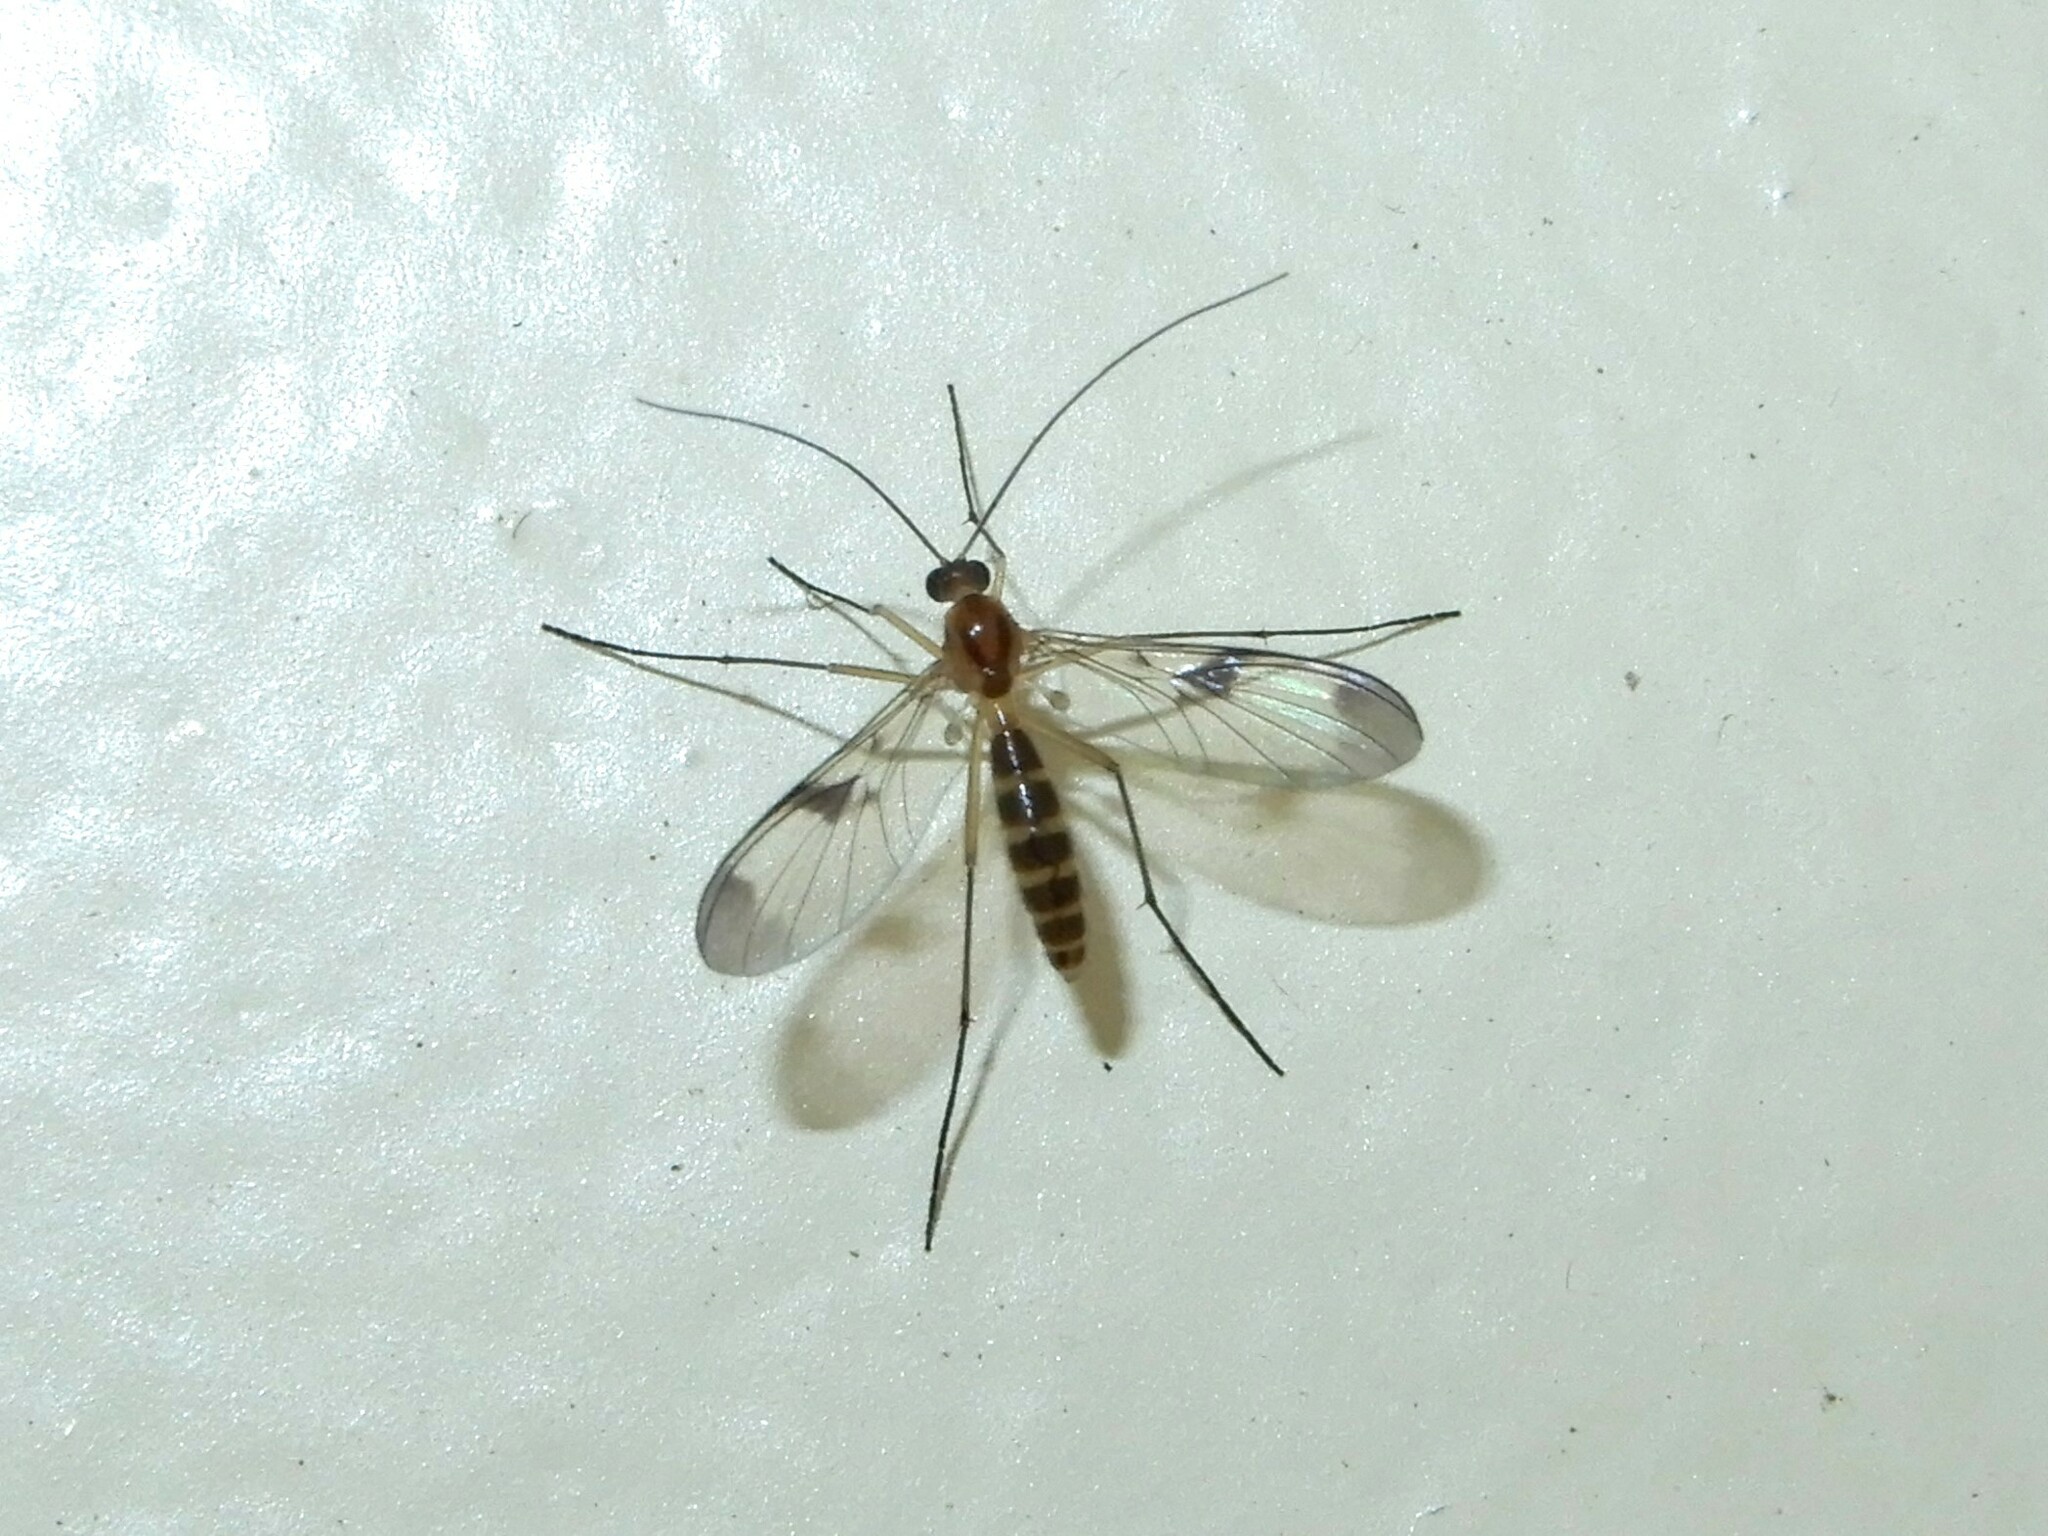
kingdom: Animalia
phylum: Arthropoda
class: Insecta
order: Diptera
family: Keroplatidae
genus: Macrocera
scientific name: Macrocera scoparia
